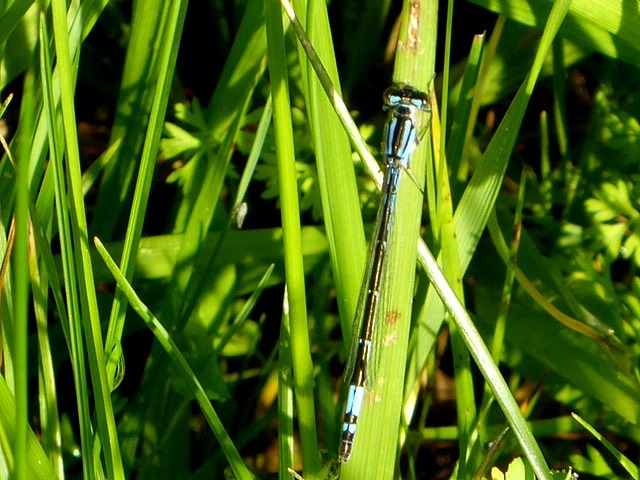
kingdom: Animalia
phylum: Arthropoda
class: Insecta
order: Odonata
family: Coenagrionidae
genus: Enallagma
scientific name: Enallagma aspersum
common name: Azure bluet
